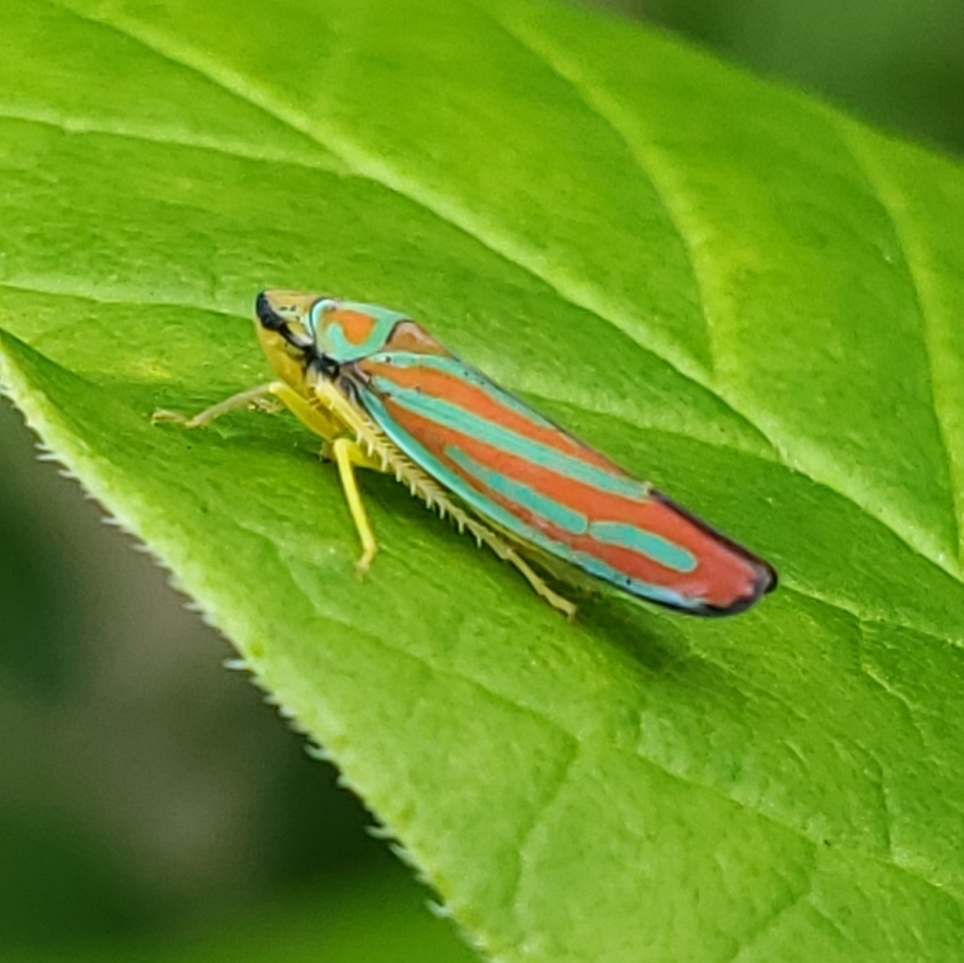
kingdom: Animalia
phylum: Arthropoda
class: Insecta
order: Hemiptera
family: Cicadellidae
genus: Graphocephala
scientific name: Graphocephala coccinea
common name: Candy-striped leafhopper
